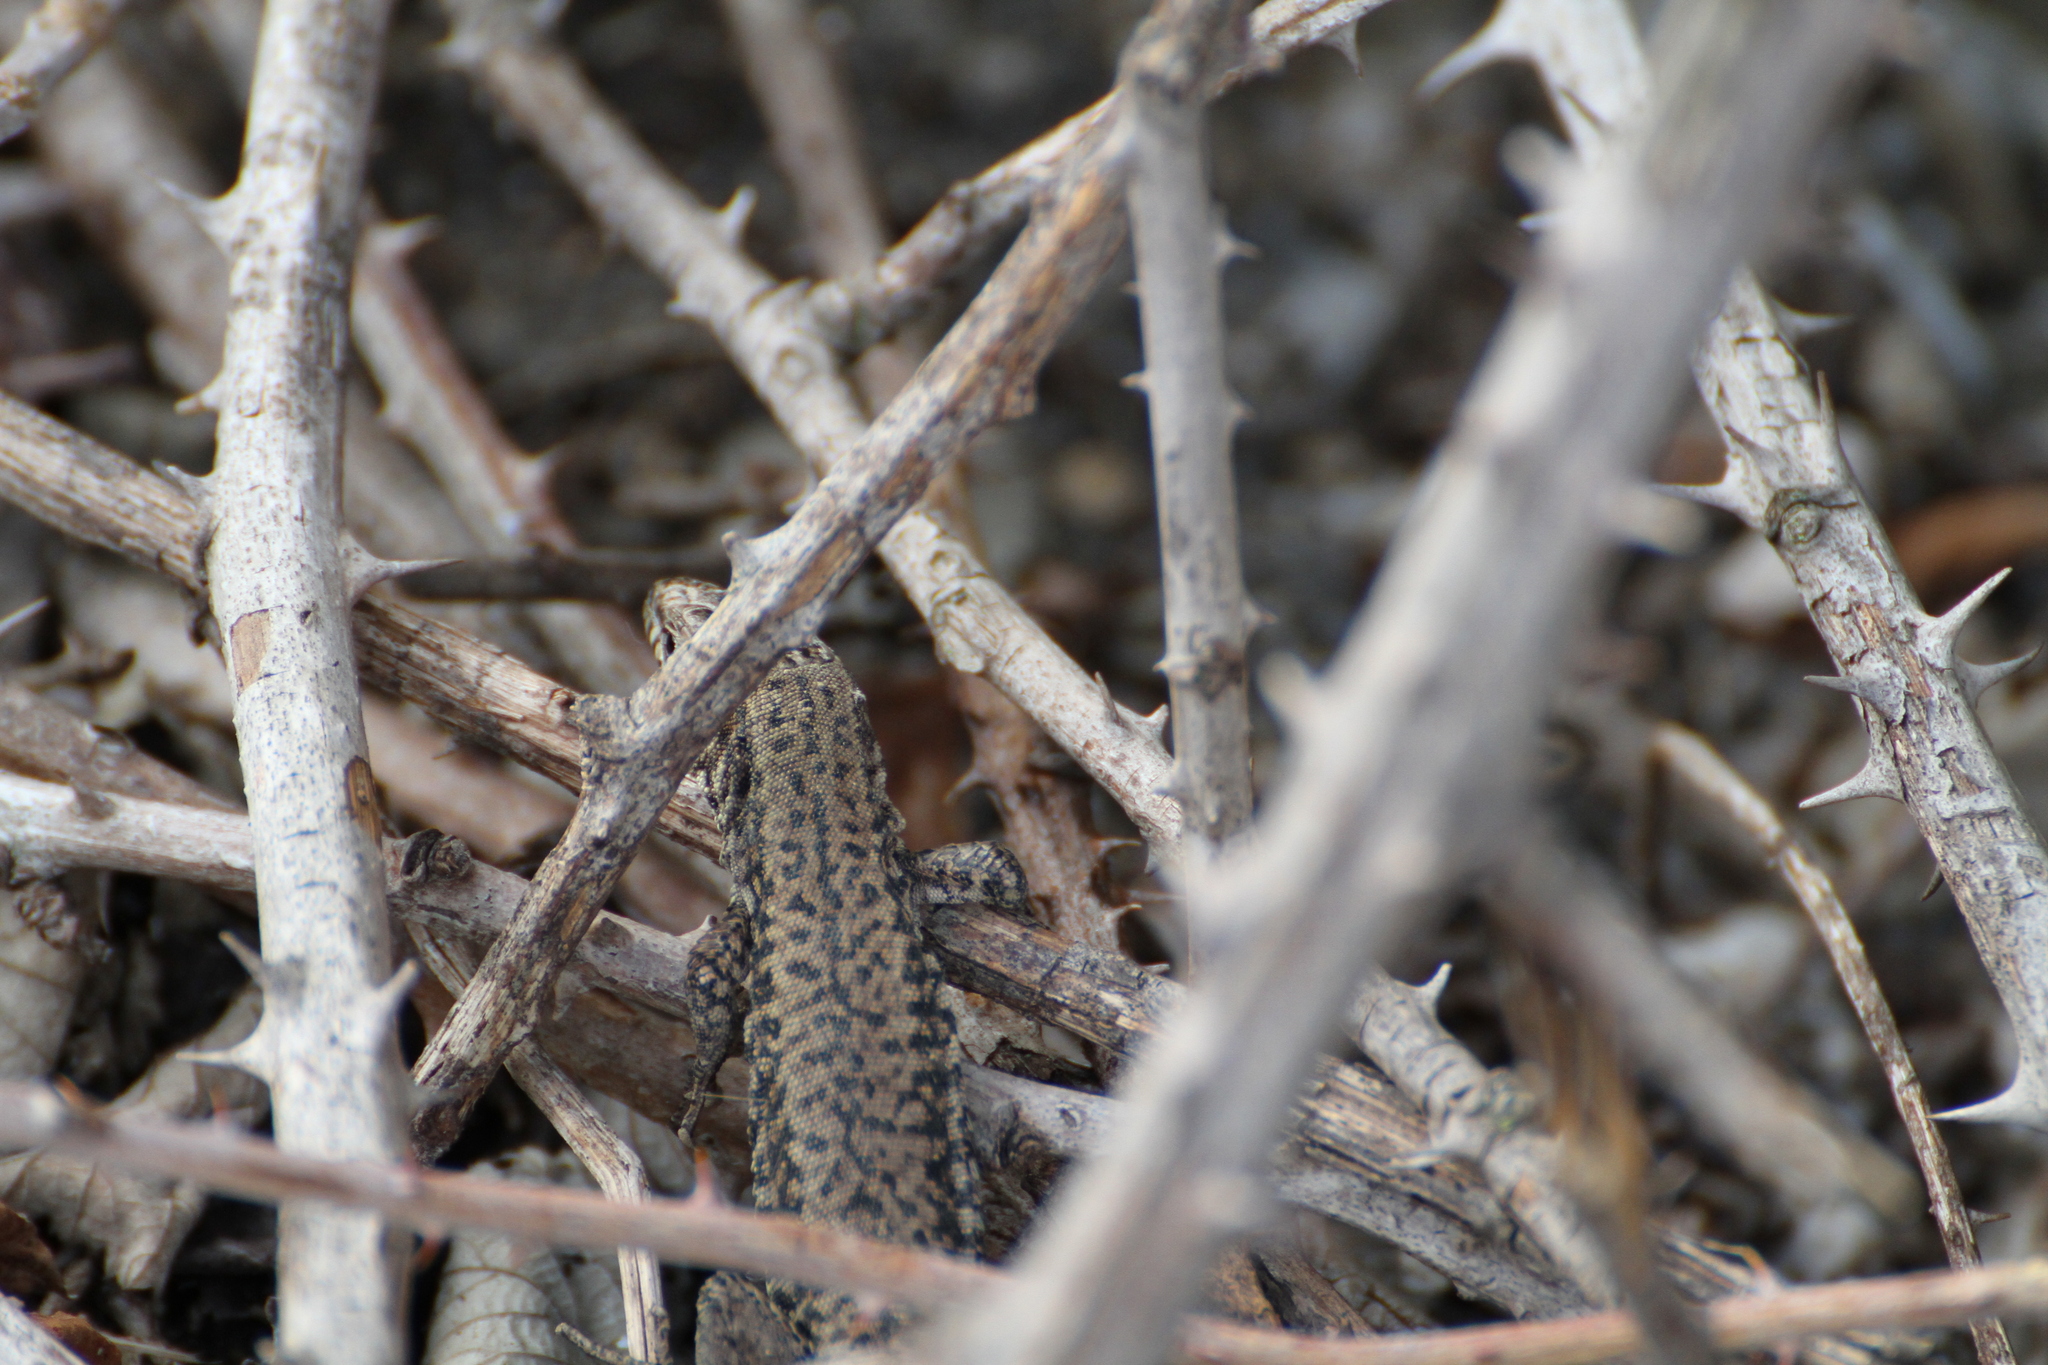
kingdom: Animalia
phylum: Chordata
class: Squamata
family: Lacertidae
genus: Podarcis
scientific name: Podarcis muralis
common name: Common wall lizard
